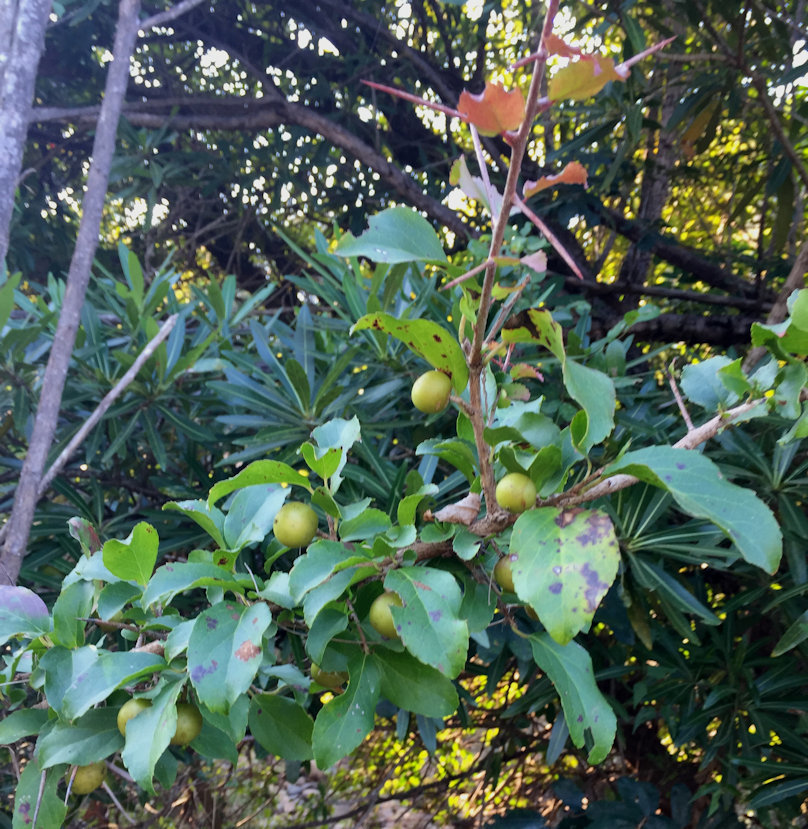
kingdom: Plantae
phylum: Tracheophyta
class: Magnoliopsida
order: Malpighiales
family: Salicaceae
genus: Flacourtia
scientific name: Flacourtia indica
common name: Governor's plum
